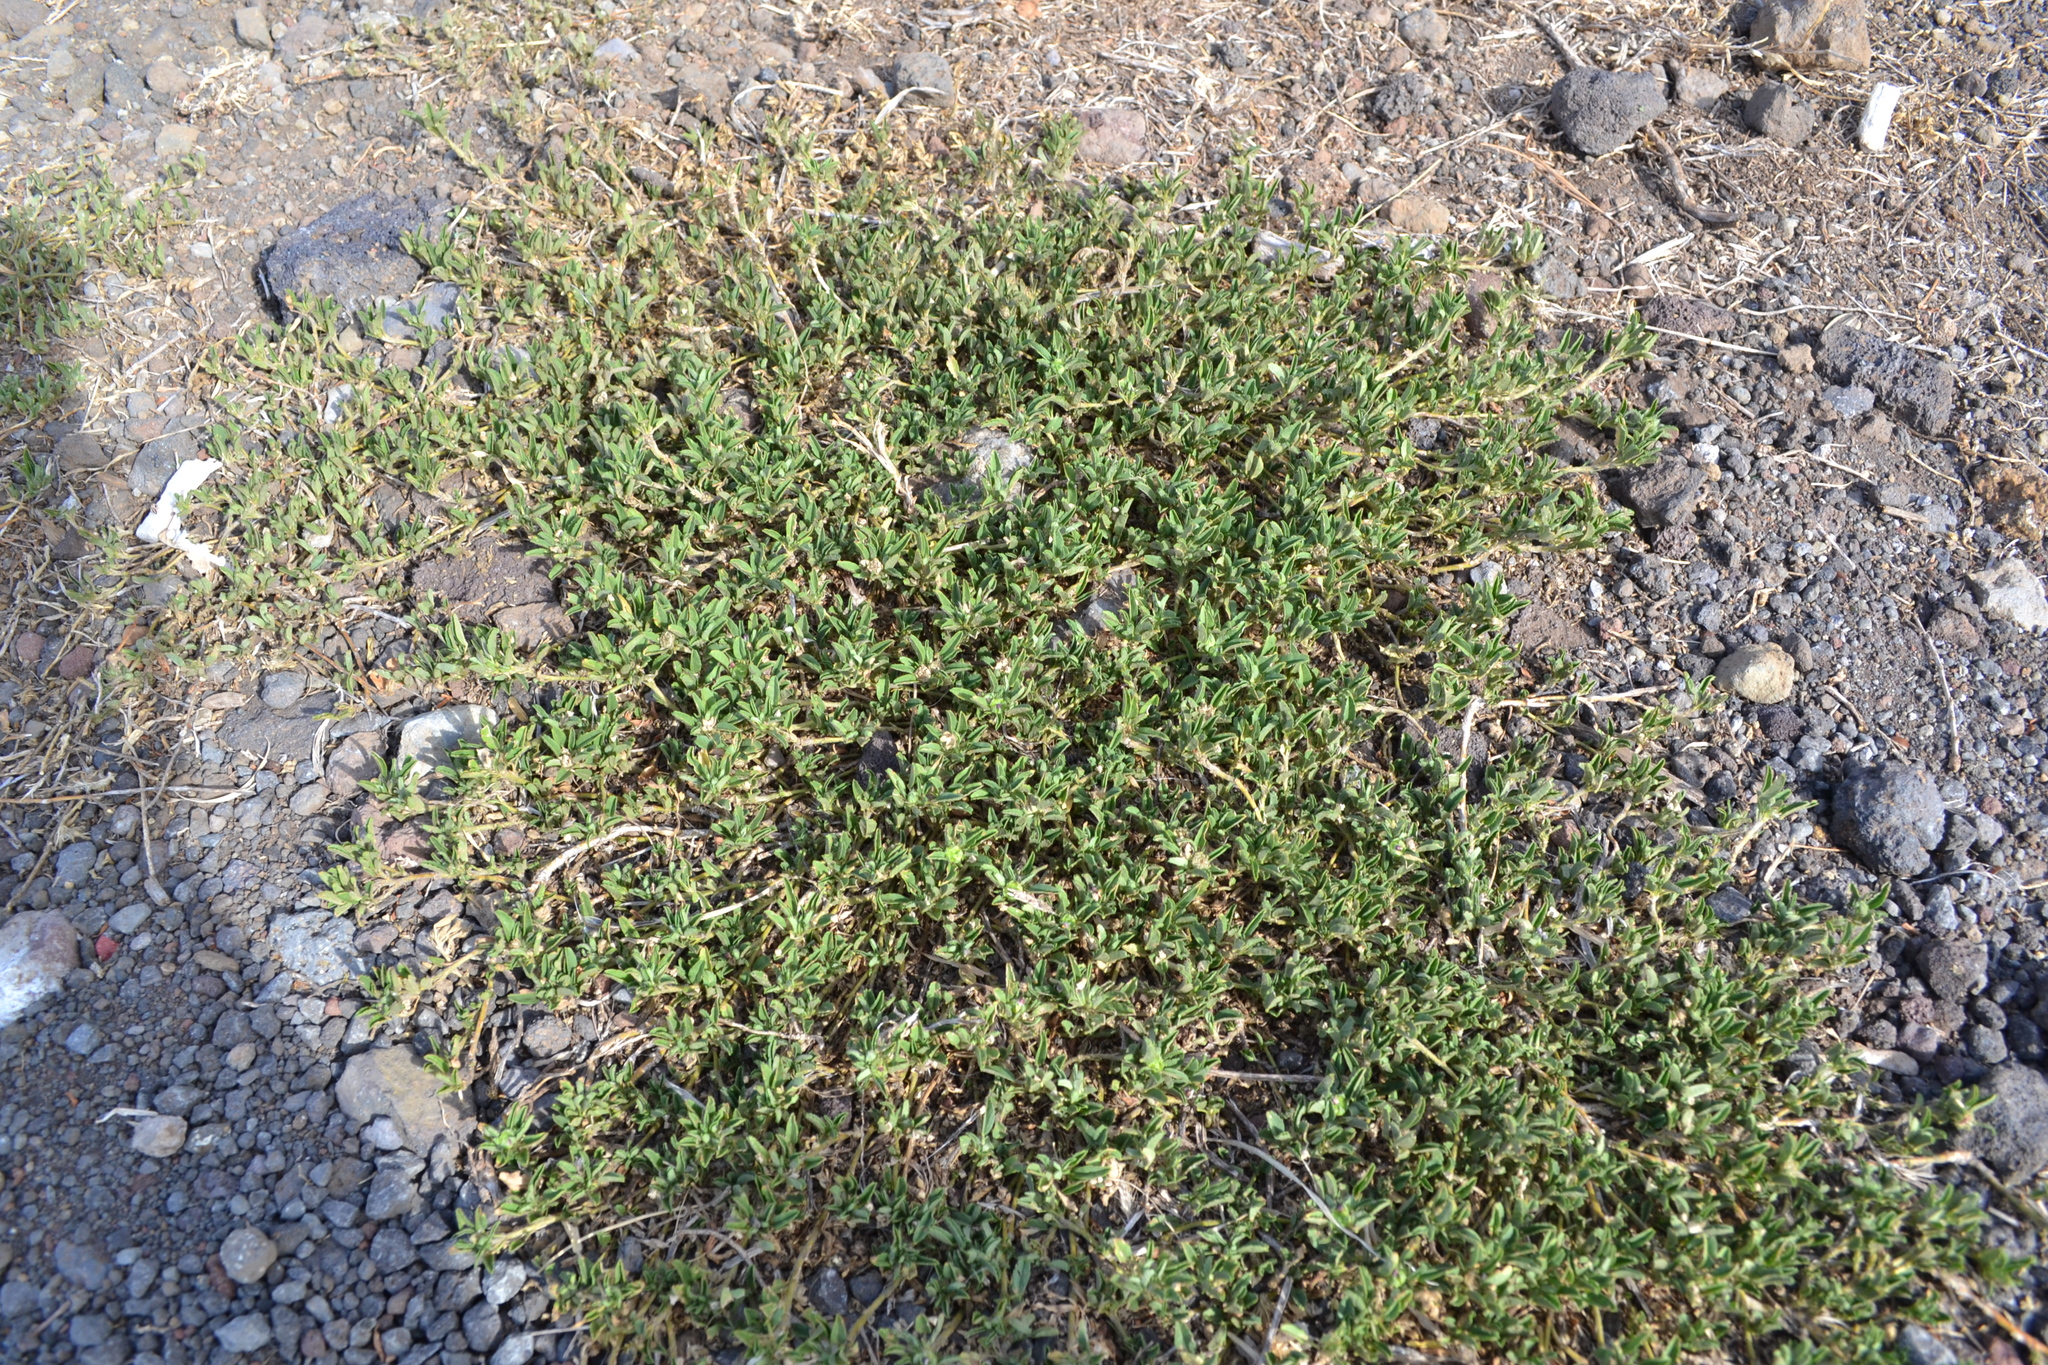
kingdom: Plantae
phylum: Tracheophyta
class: Magnoliopsida
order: Malvales
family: Malvaceae
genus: Sida
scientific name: Sida ciliaris
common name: Bracted fanpetals
